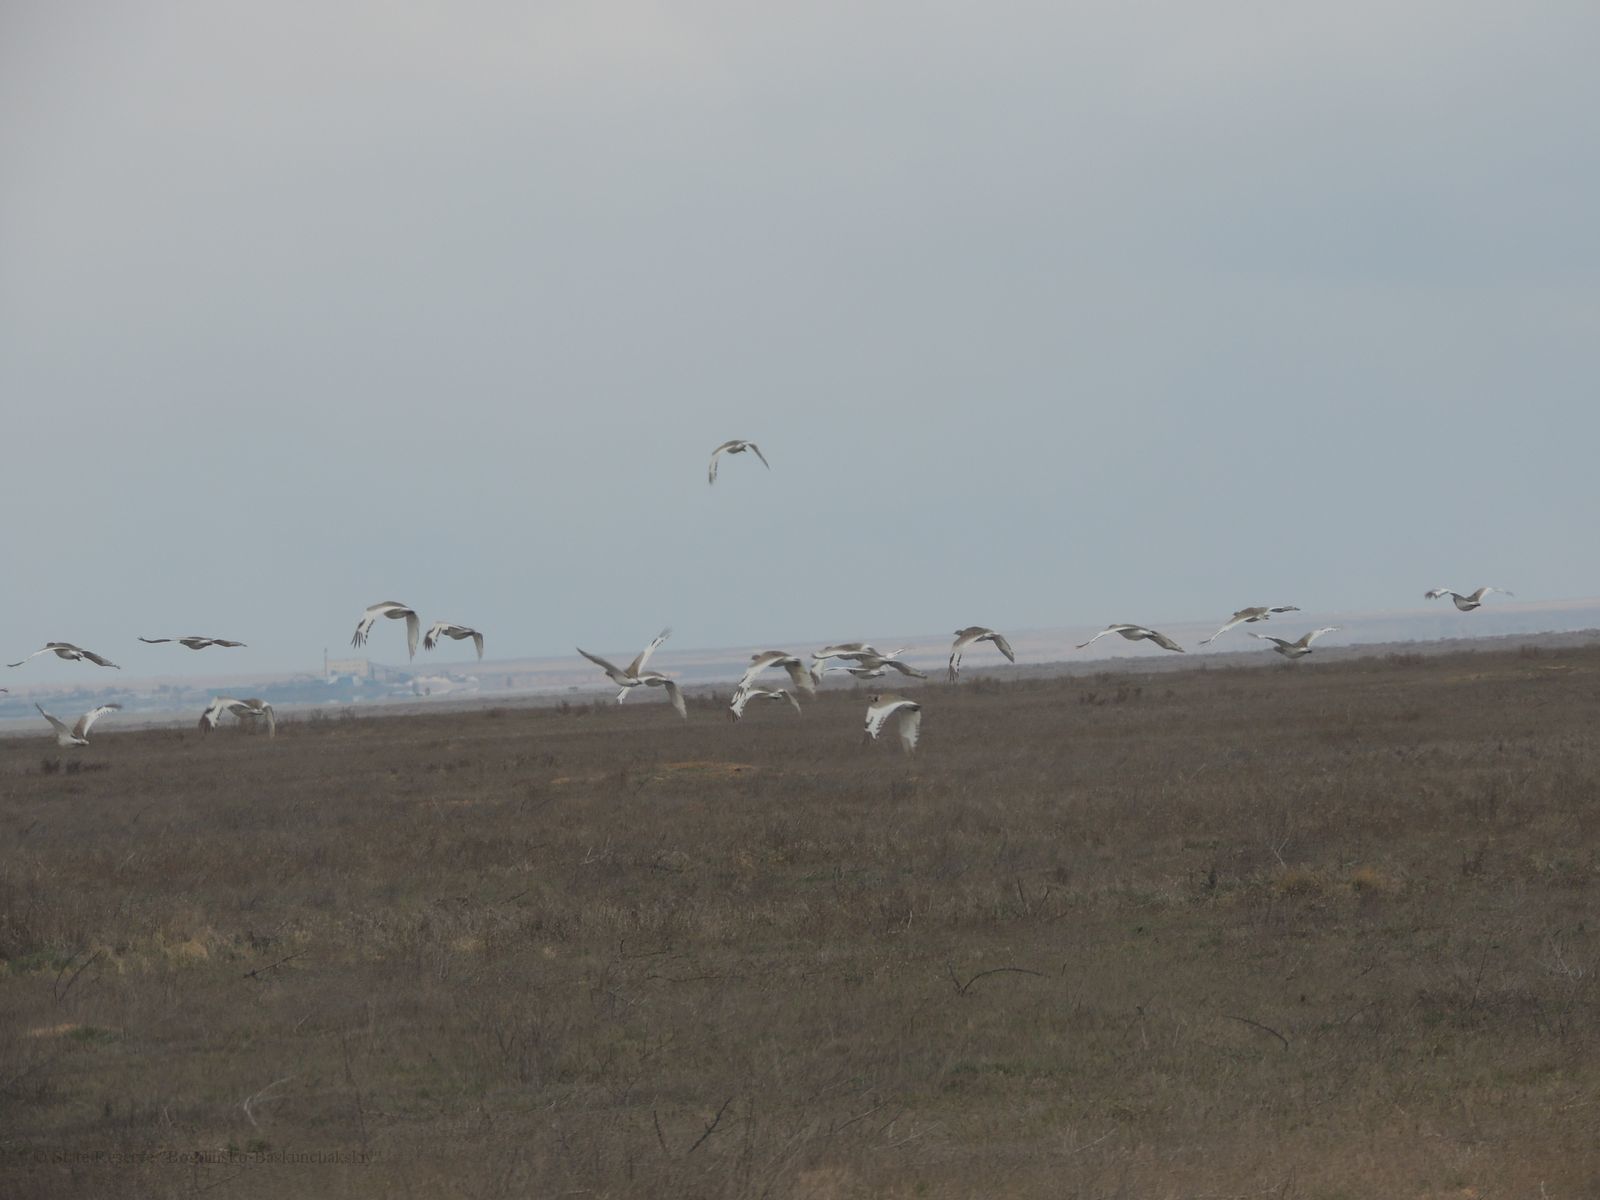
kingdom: Animalia
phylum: Chordata
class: Aves
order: Otidiformes
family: Otididae
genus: Tetrax
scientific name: Tetrax tetrax
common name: Little bustard
